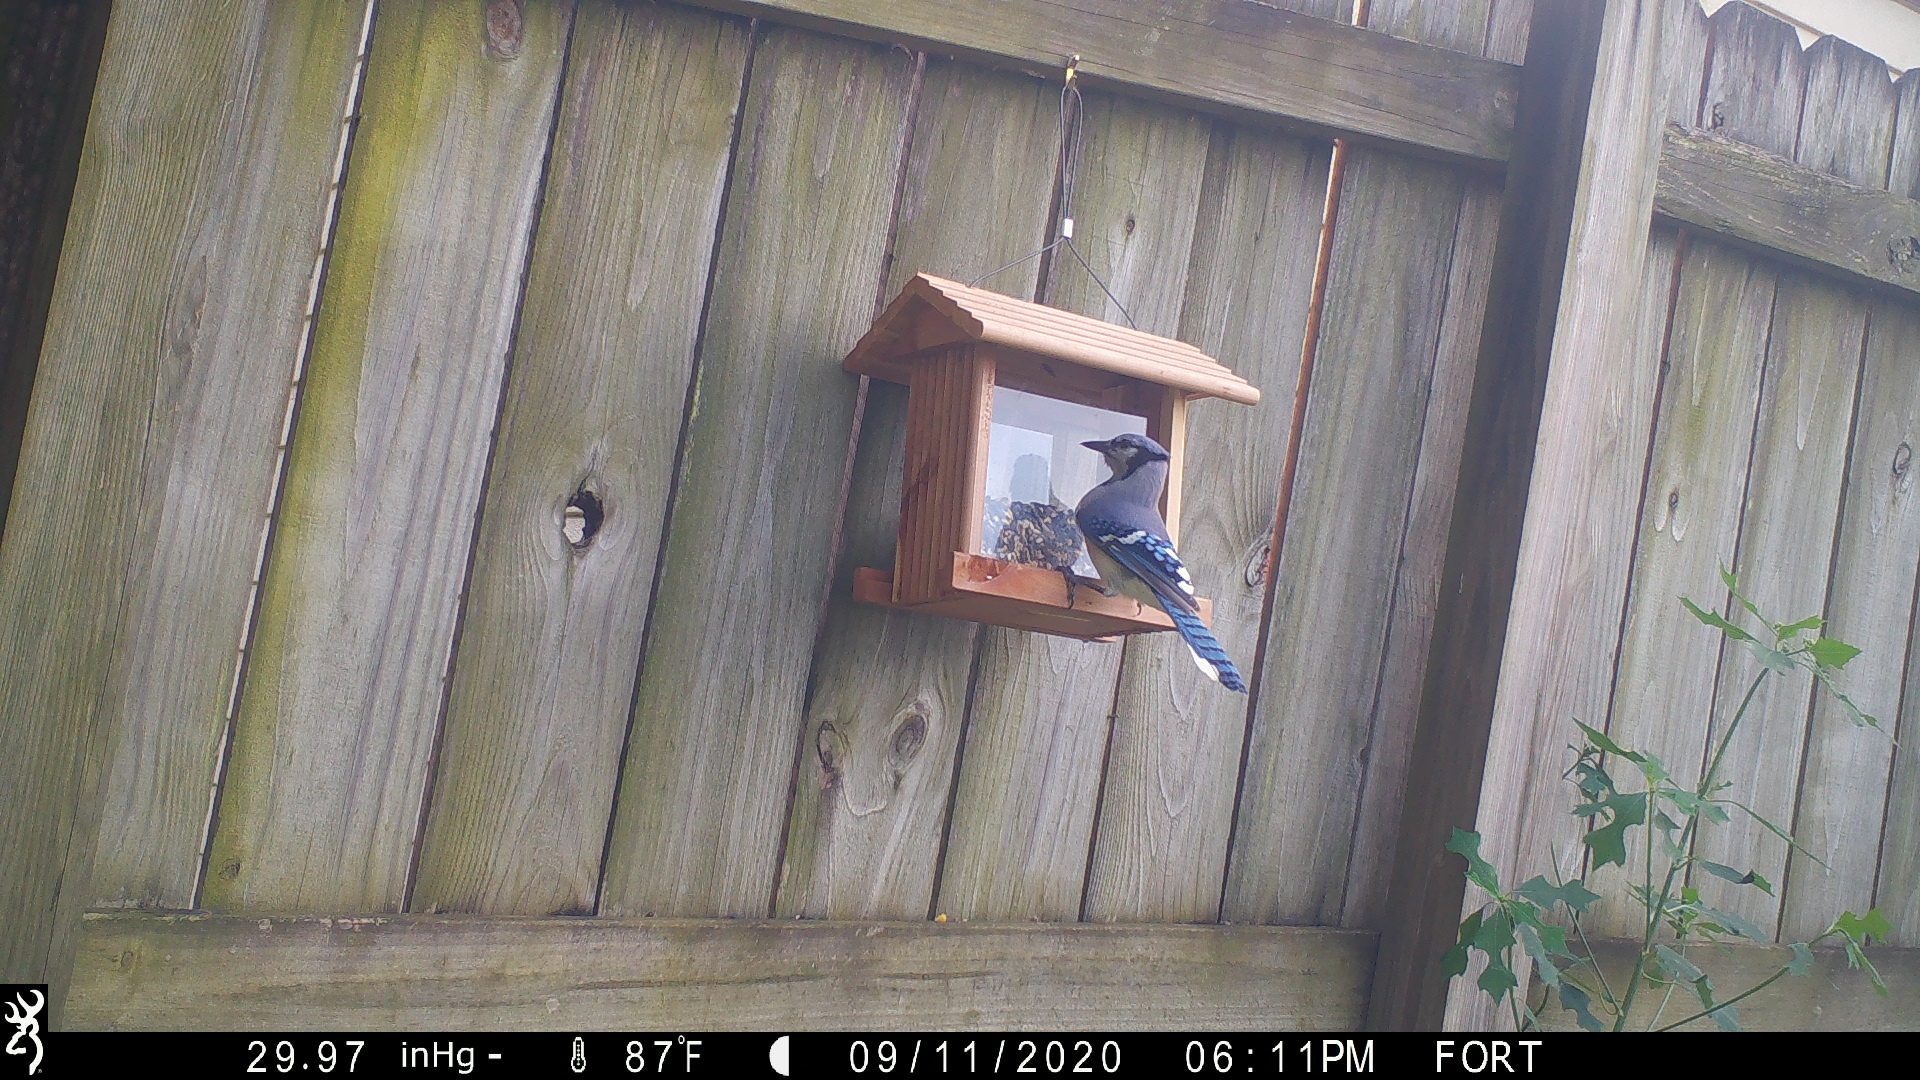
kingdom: Animalia
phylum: Chordata
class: Aves
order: Passeriformes
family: Corvidae
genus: Cyanocitta
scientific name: Cyanocitta cristata
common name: Blue jay
